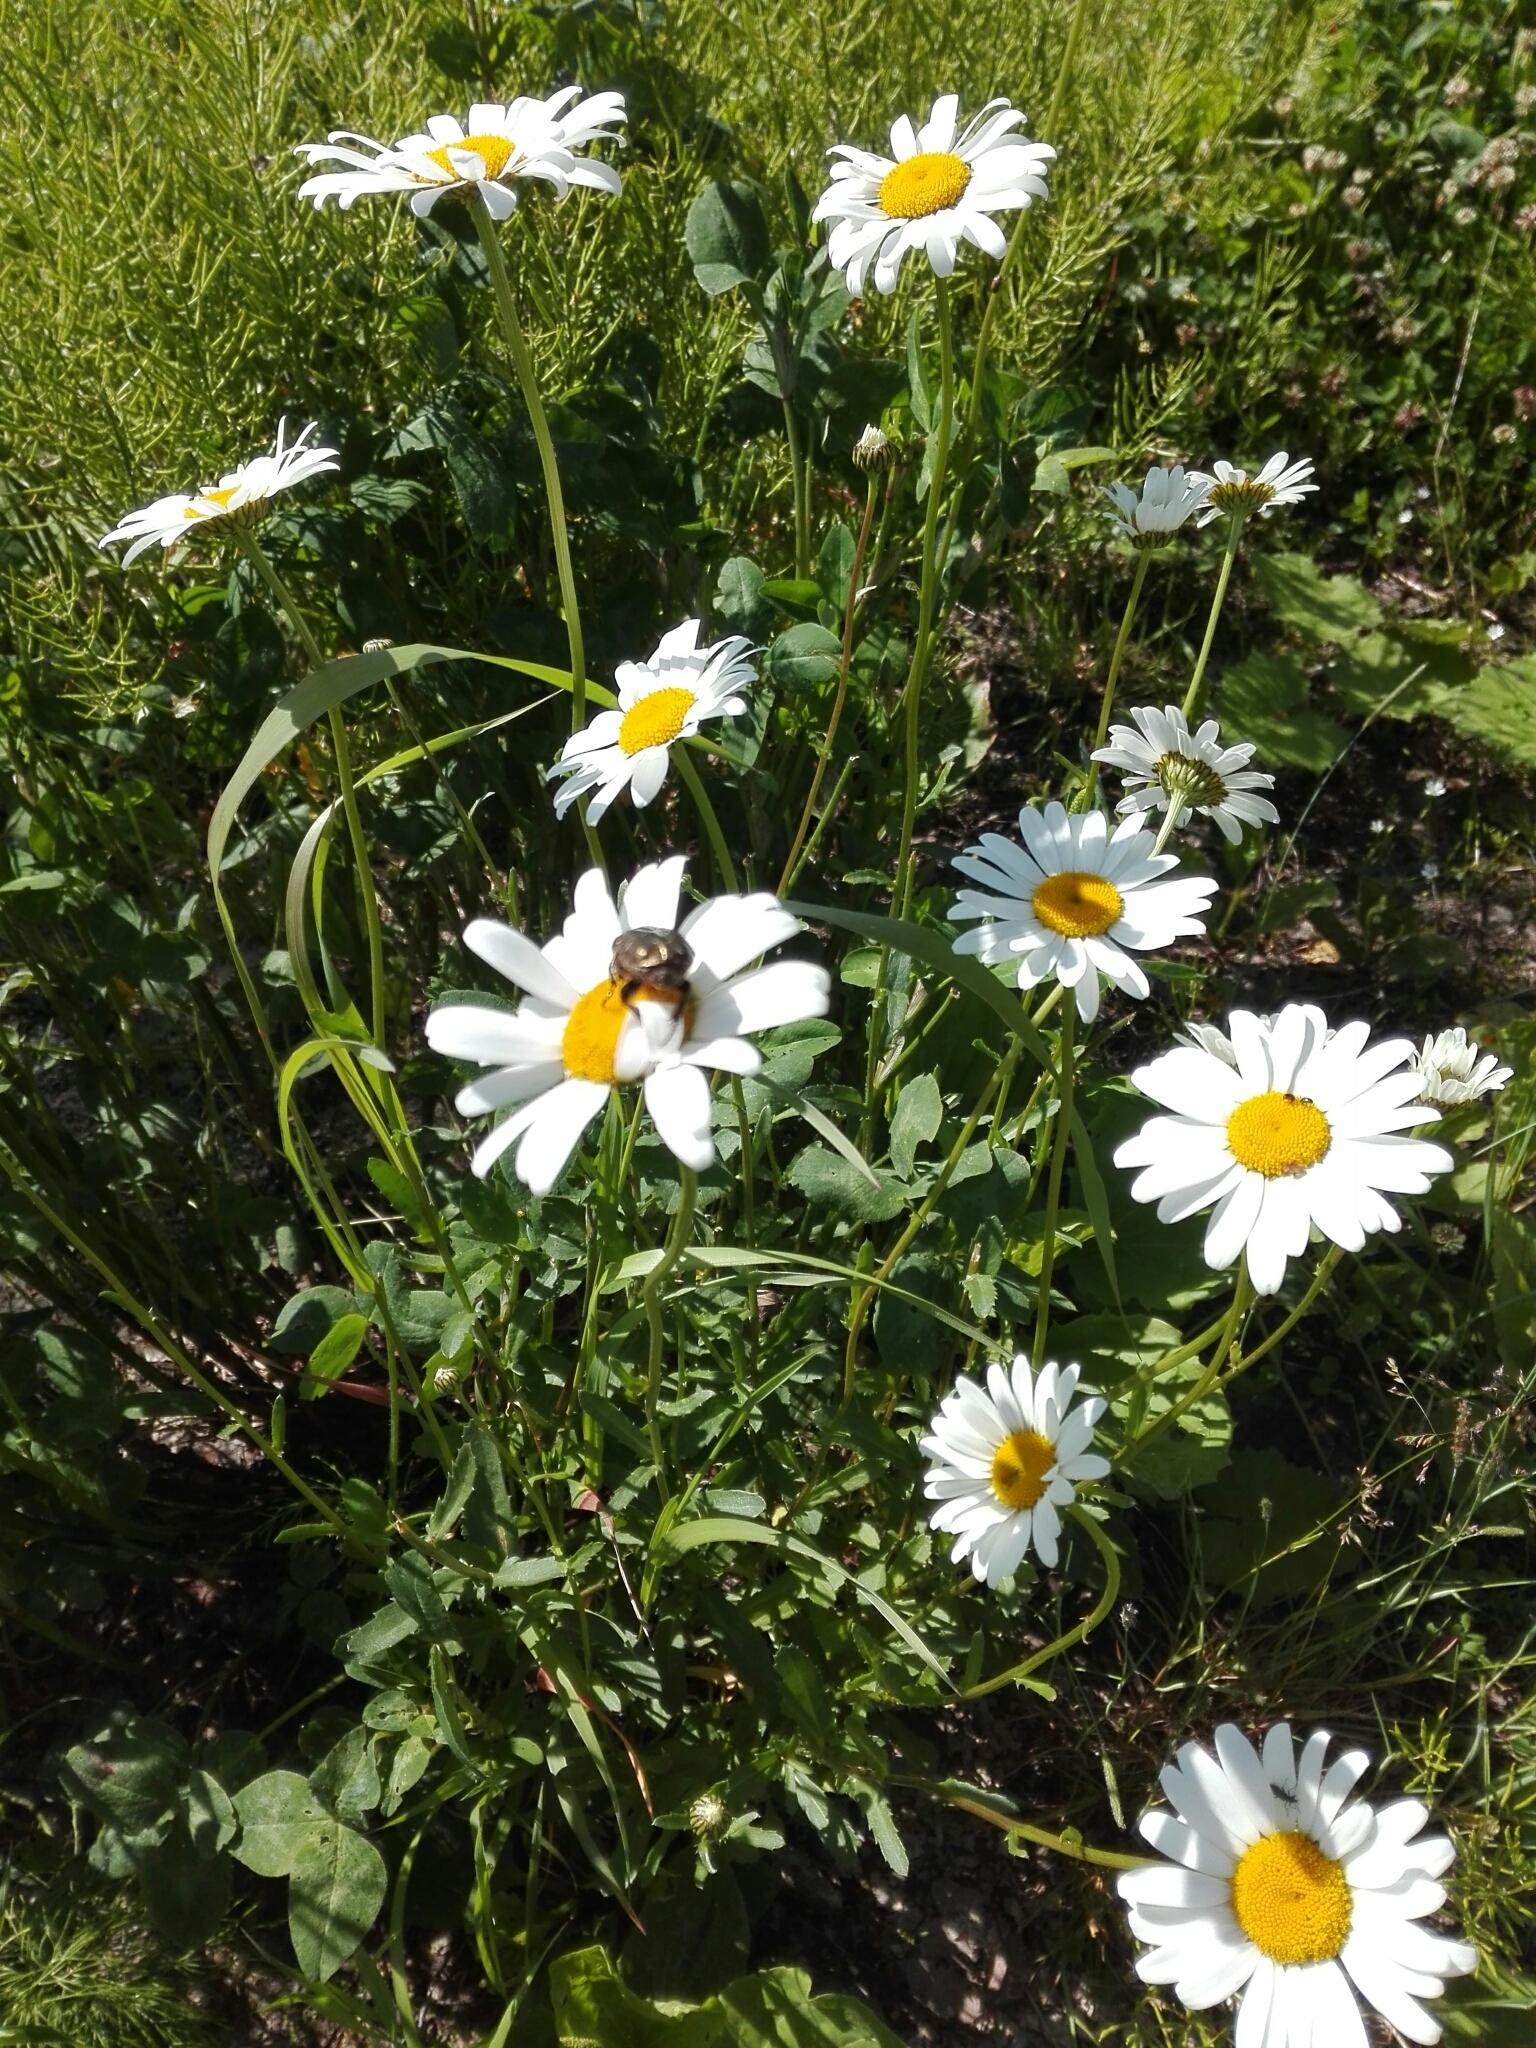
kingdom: Plantae
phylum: Tracheophyta
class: Magnoliopsida
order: Asterales
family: Asteraceae
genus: Leucanthemum
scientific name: Leucanthemum vulgare
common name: Oxeye daisy
